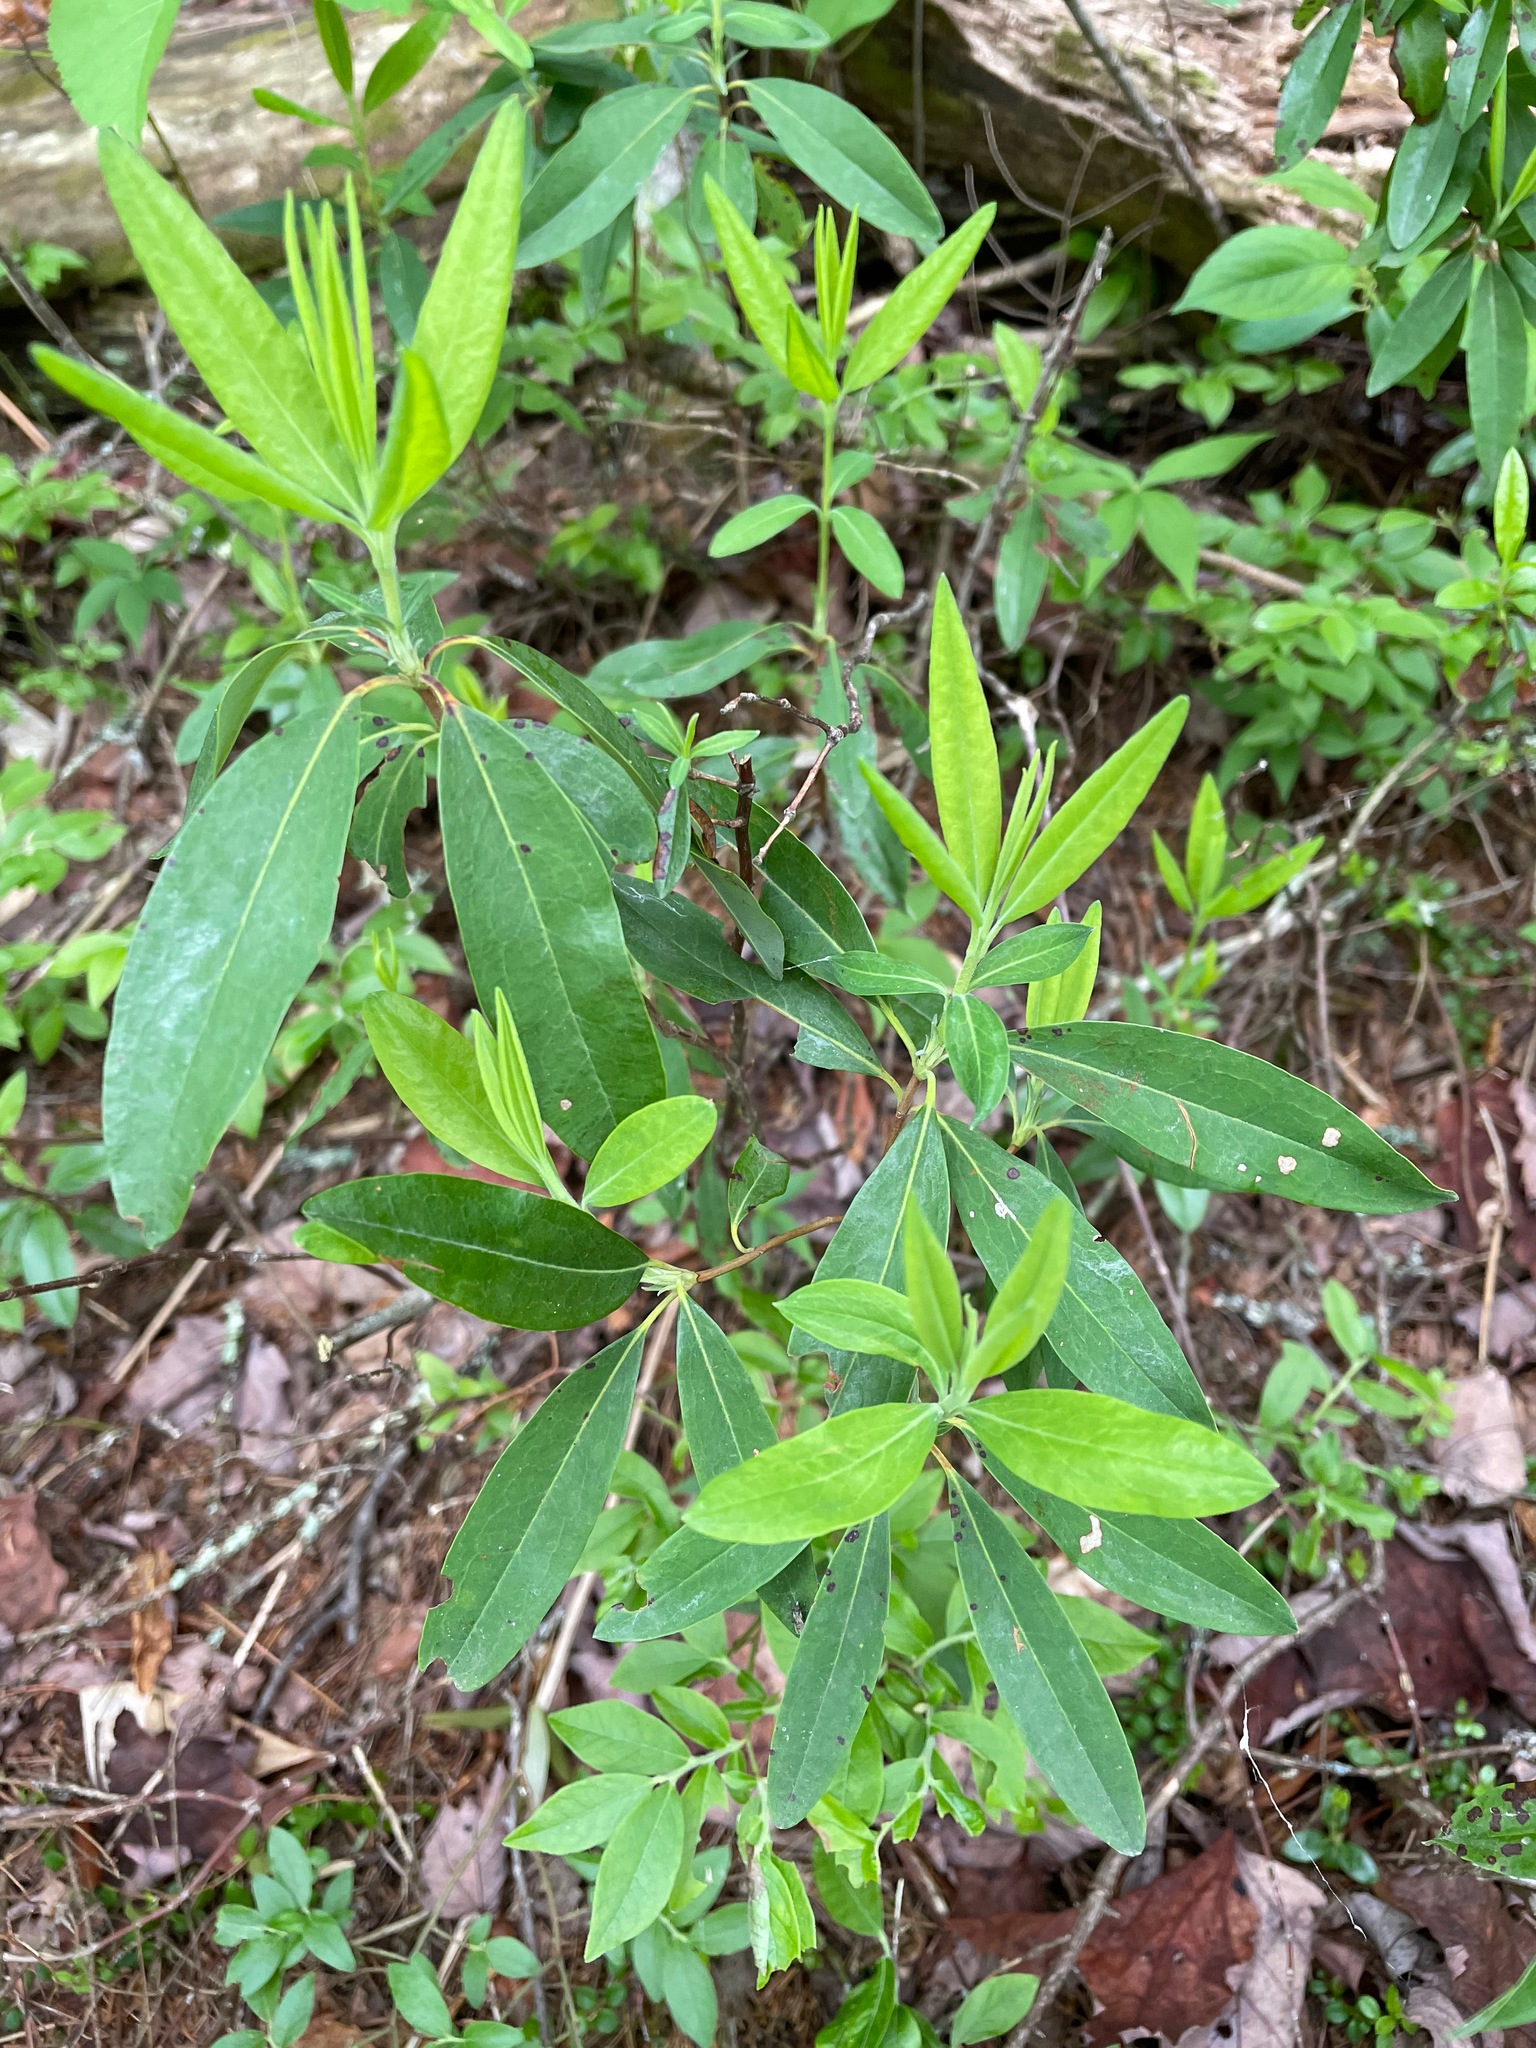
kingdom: Plantae
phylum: Tracheophyta
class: Magnoliopsida
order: Ericales
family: Ericaceae
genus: Kalmia
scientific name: Kalmia angustifolia
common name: Sheep-laurel
